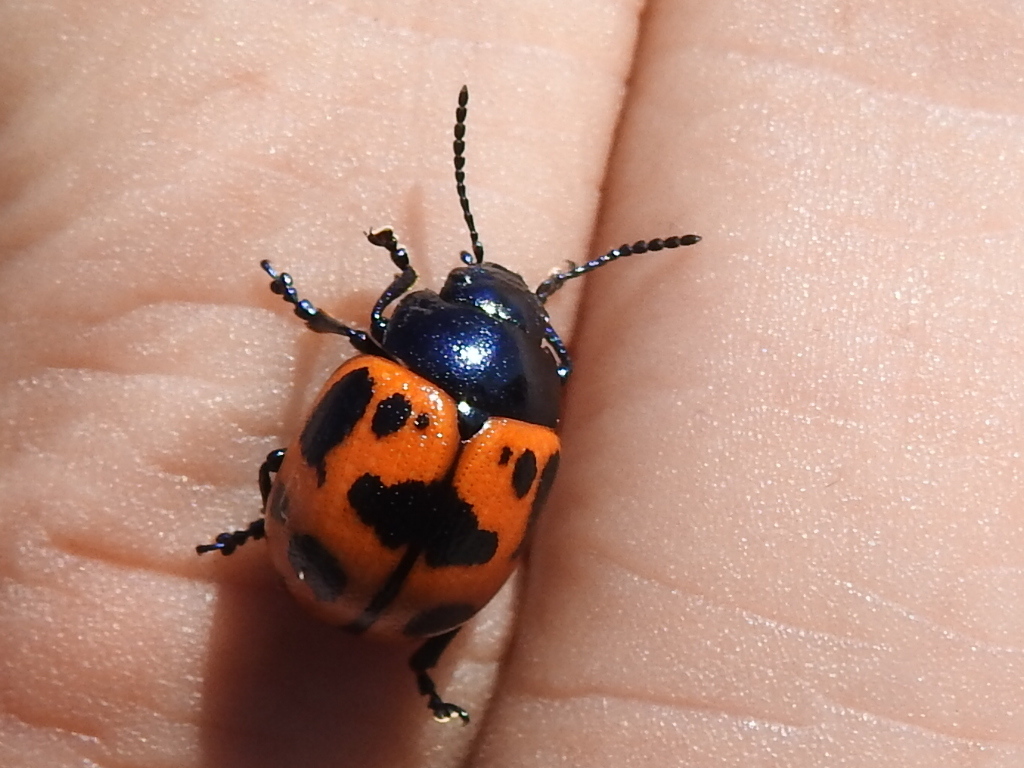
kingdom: Animalia
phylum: Arthropoda
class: Insecta
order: Coleoptera
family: Chrysomelidae
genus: Labidomera
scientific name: Labidomera clivicollis
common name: Swamp milkweed leaf beetle
